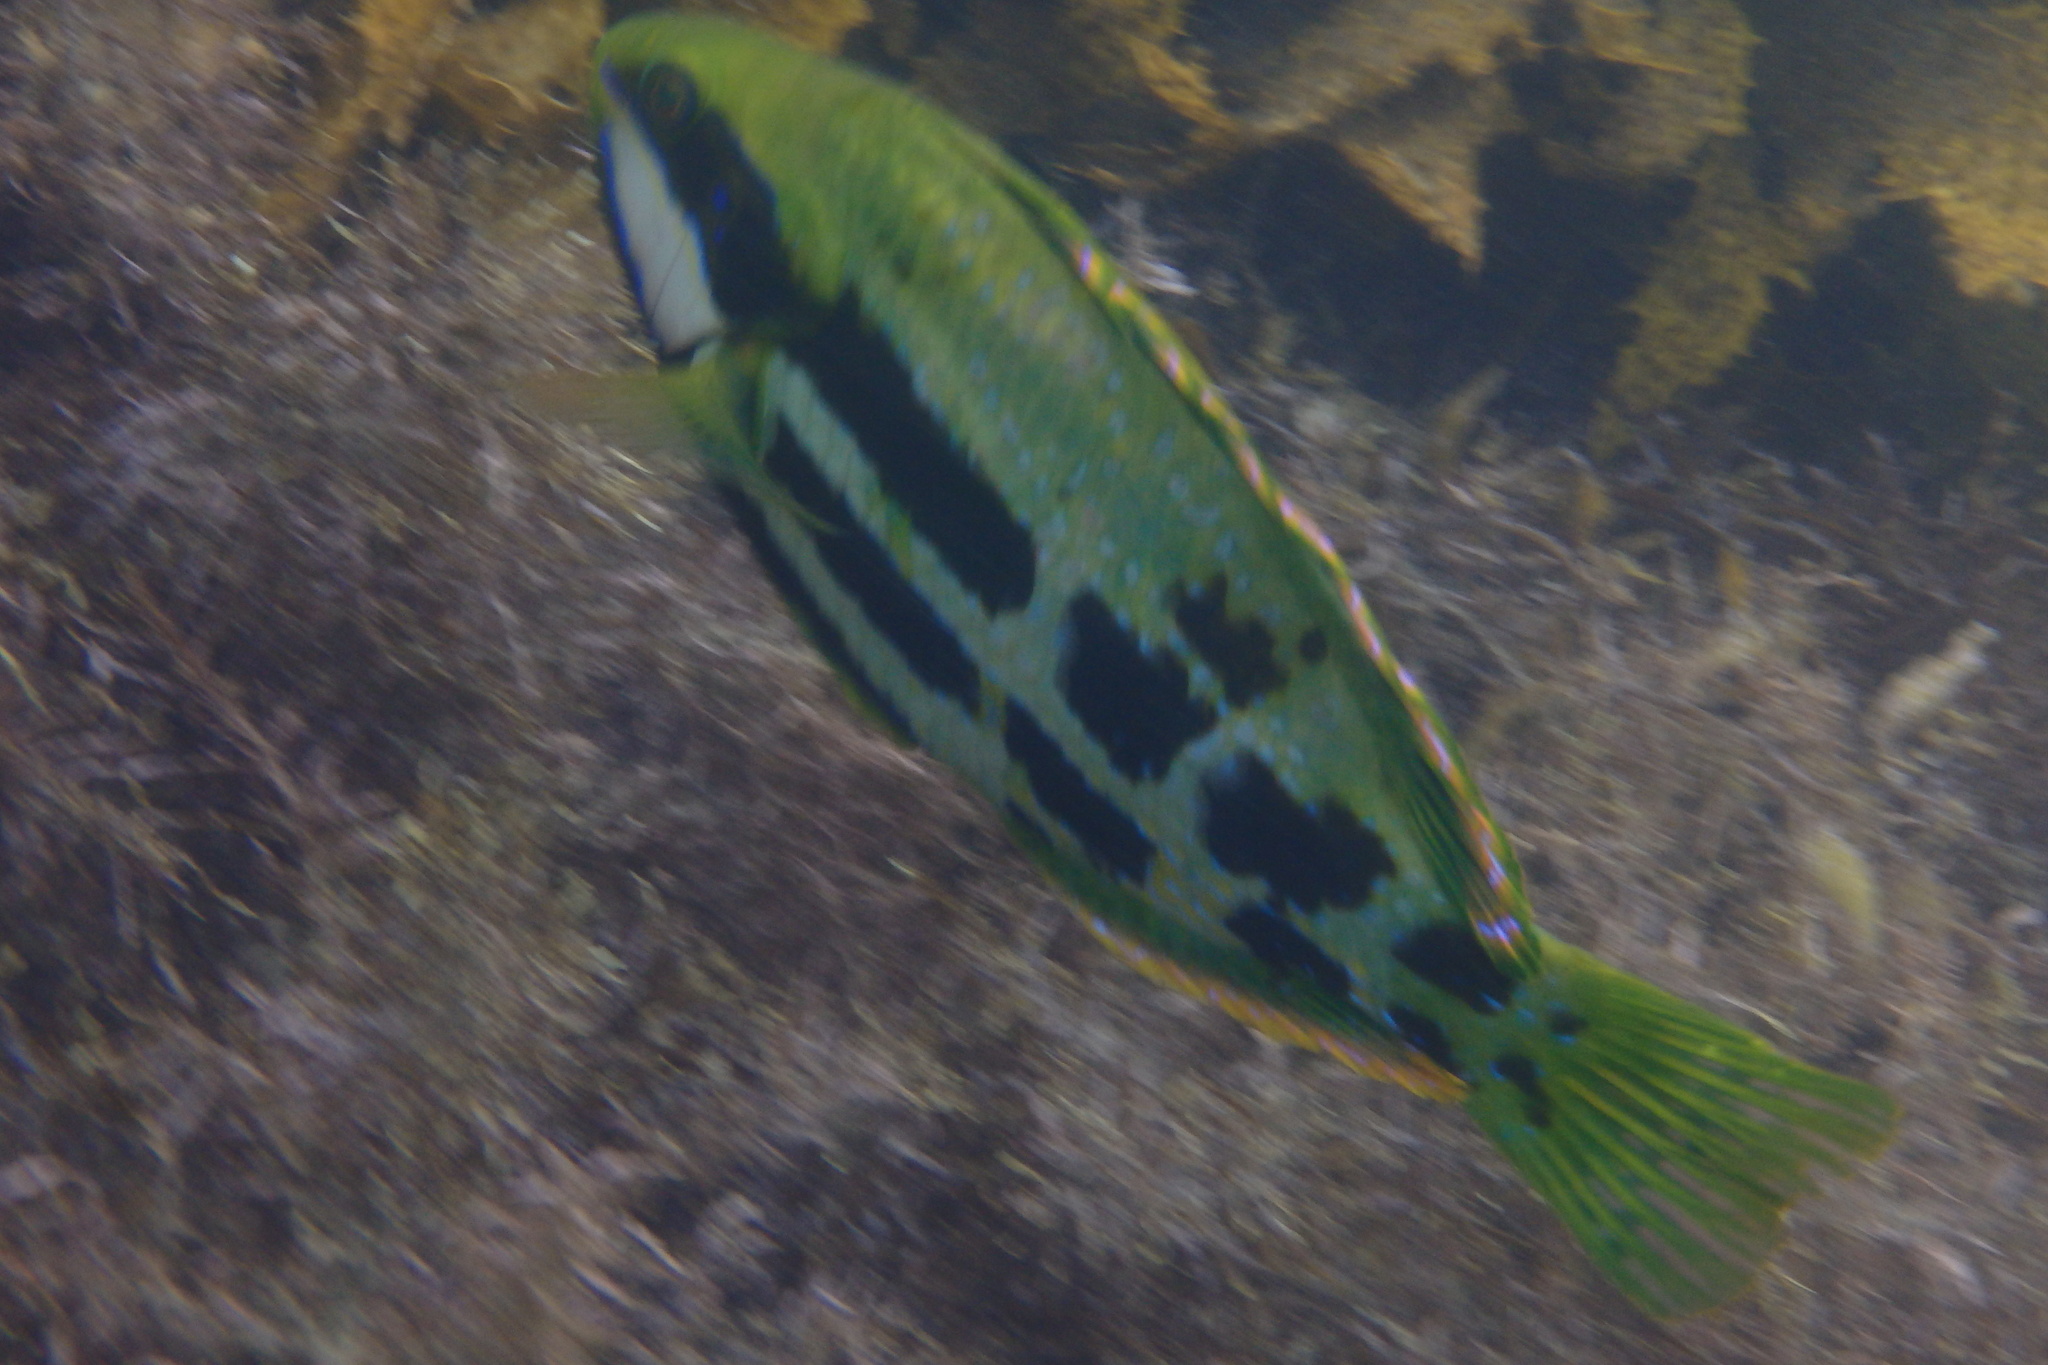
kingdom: Animalia
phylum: Chordata
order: Perciformes
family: Odacidae
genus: Heteroscarus
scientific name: Heteroscarus acroptilus
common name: Marine rainbowfish
